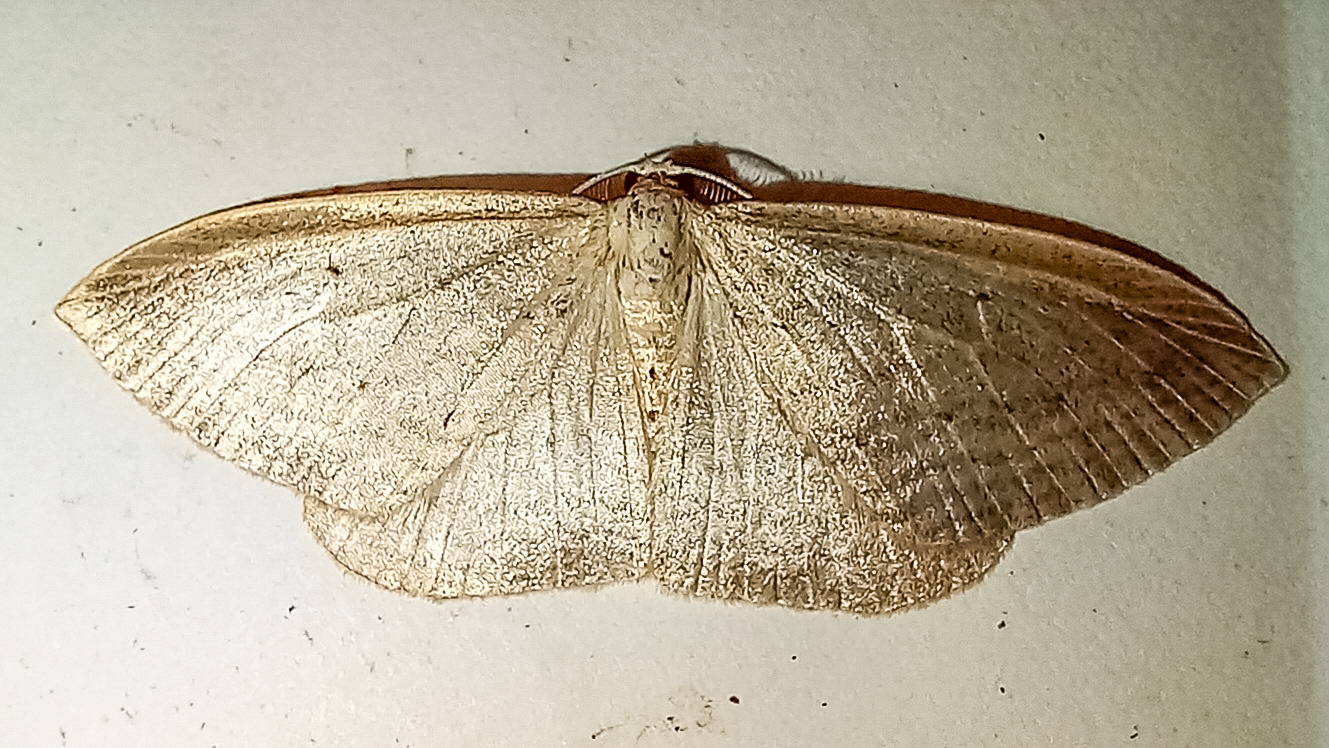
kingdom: Animalia
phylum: Arthropoda
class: Insecta
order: Lepidoptera
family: Geometridae
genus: Orthoclydon
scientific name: Orthoclydon praefectata
